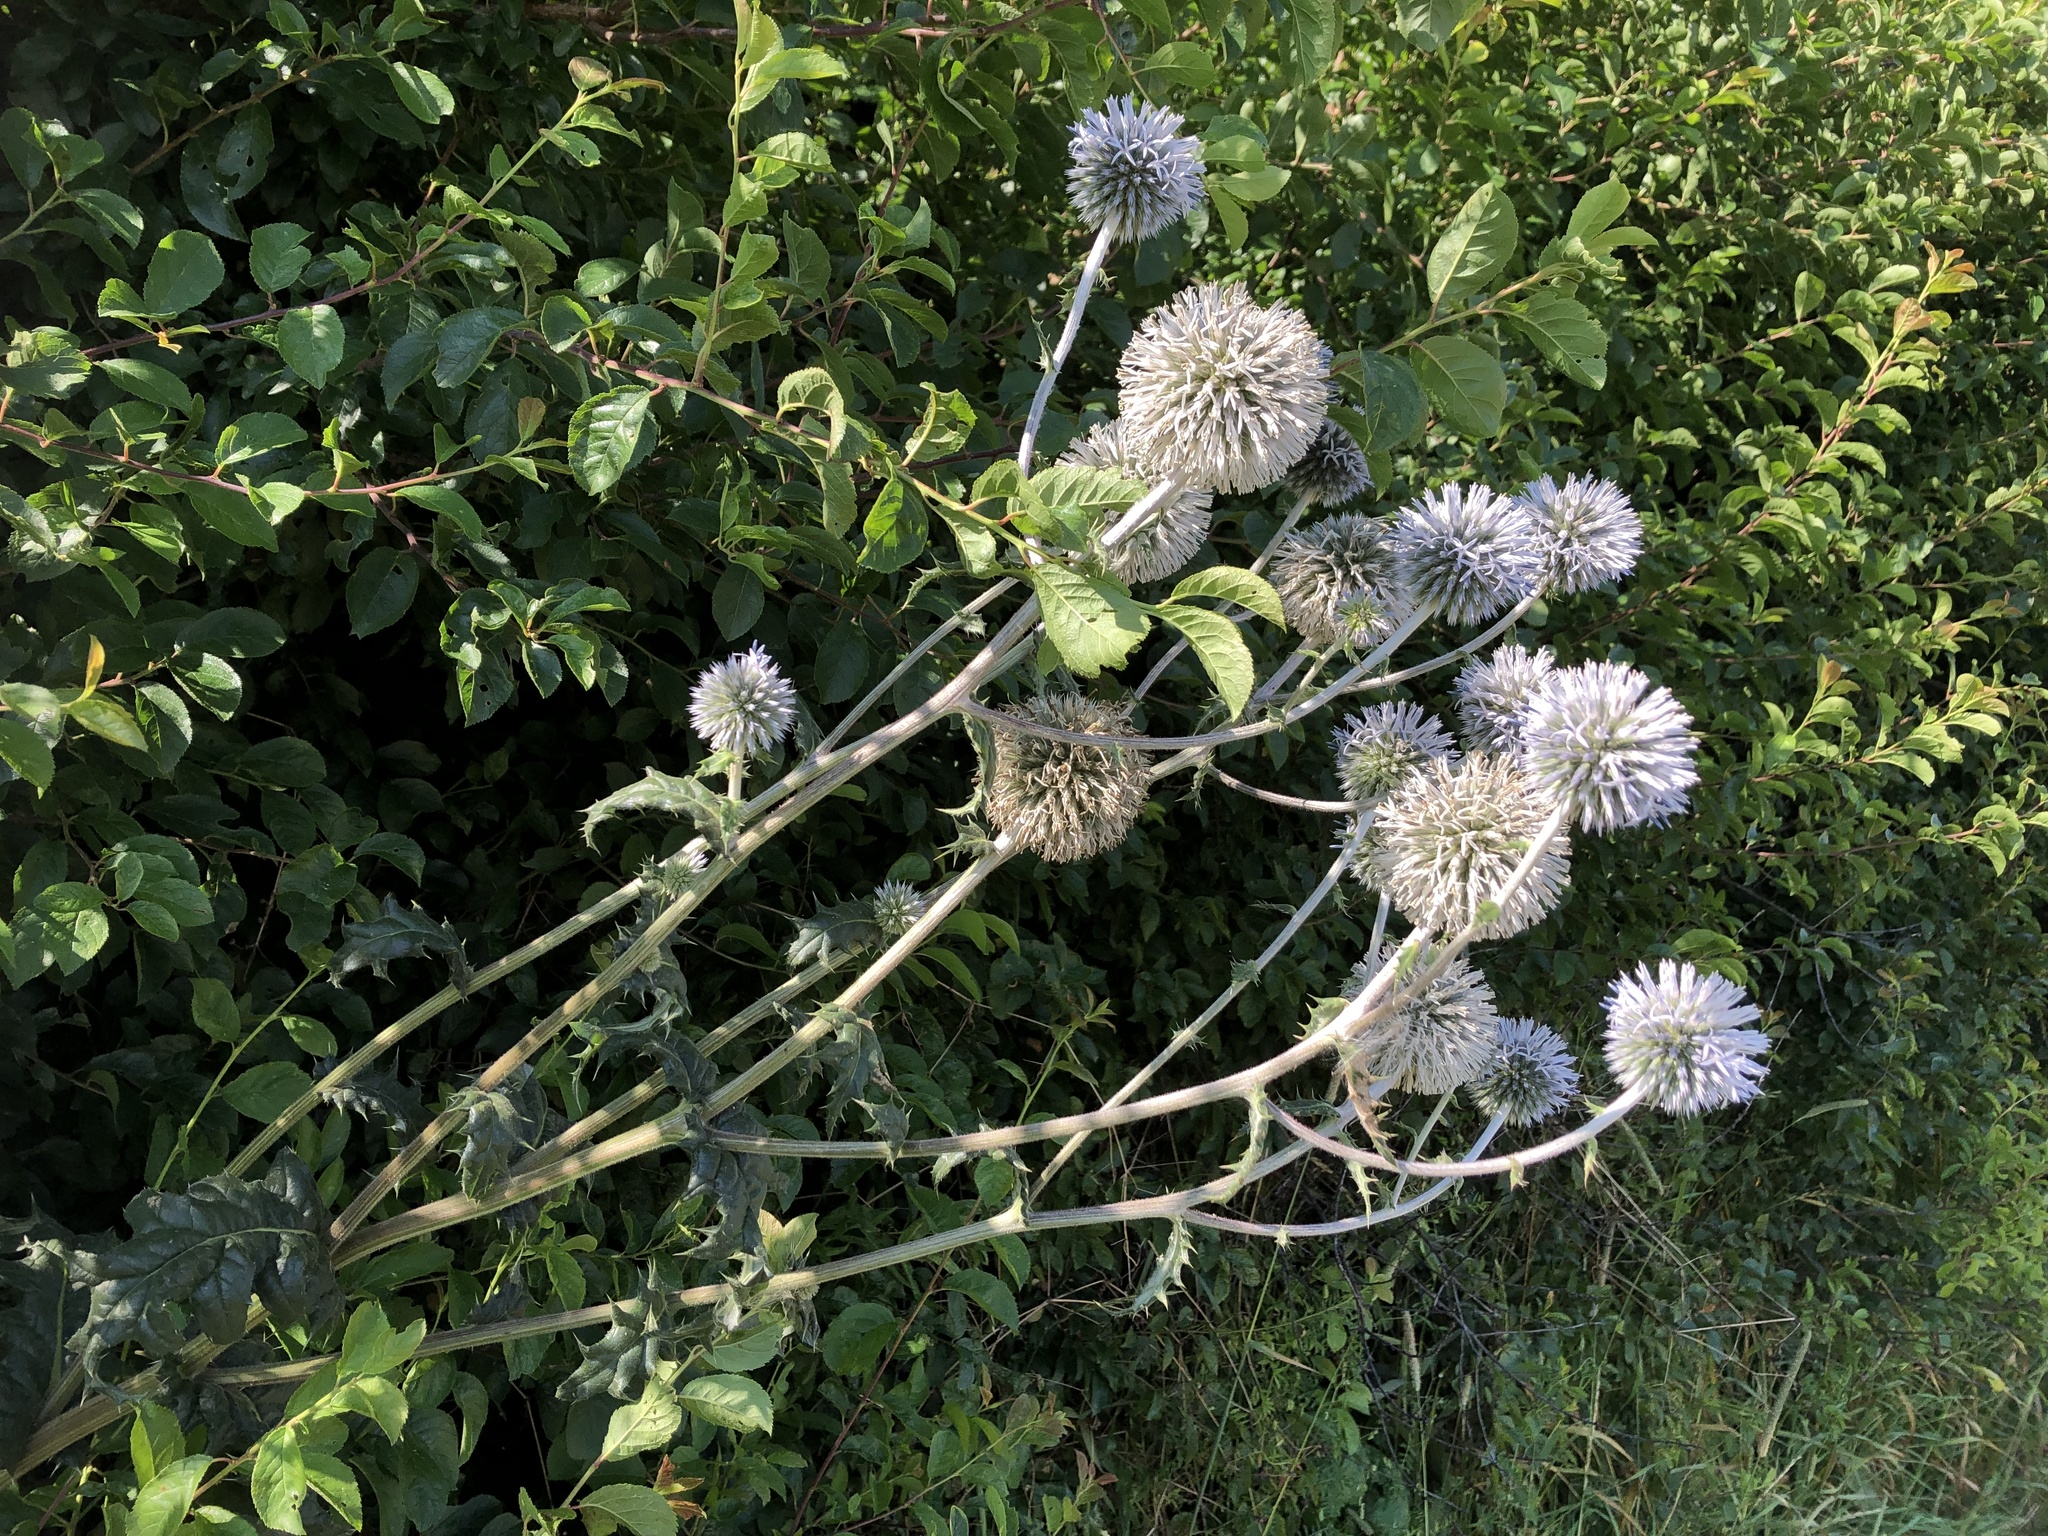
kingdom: Plantae
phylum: Tracheophyta
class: Magnoliopsida
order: Asterales
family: Asteraceae
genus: Echinops
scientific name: Echinops sphaerocephalus
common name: Glandular globe-thistle
